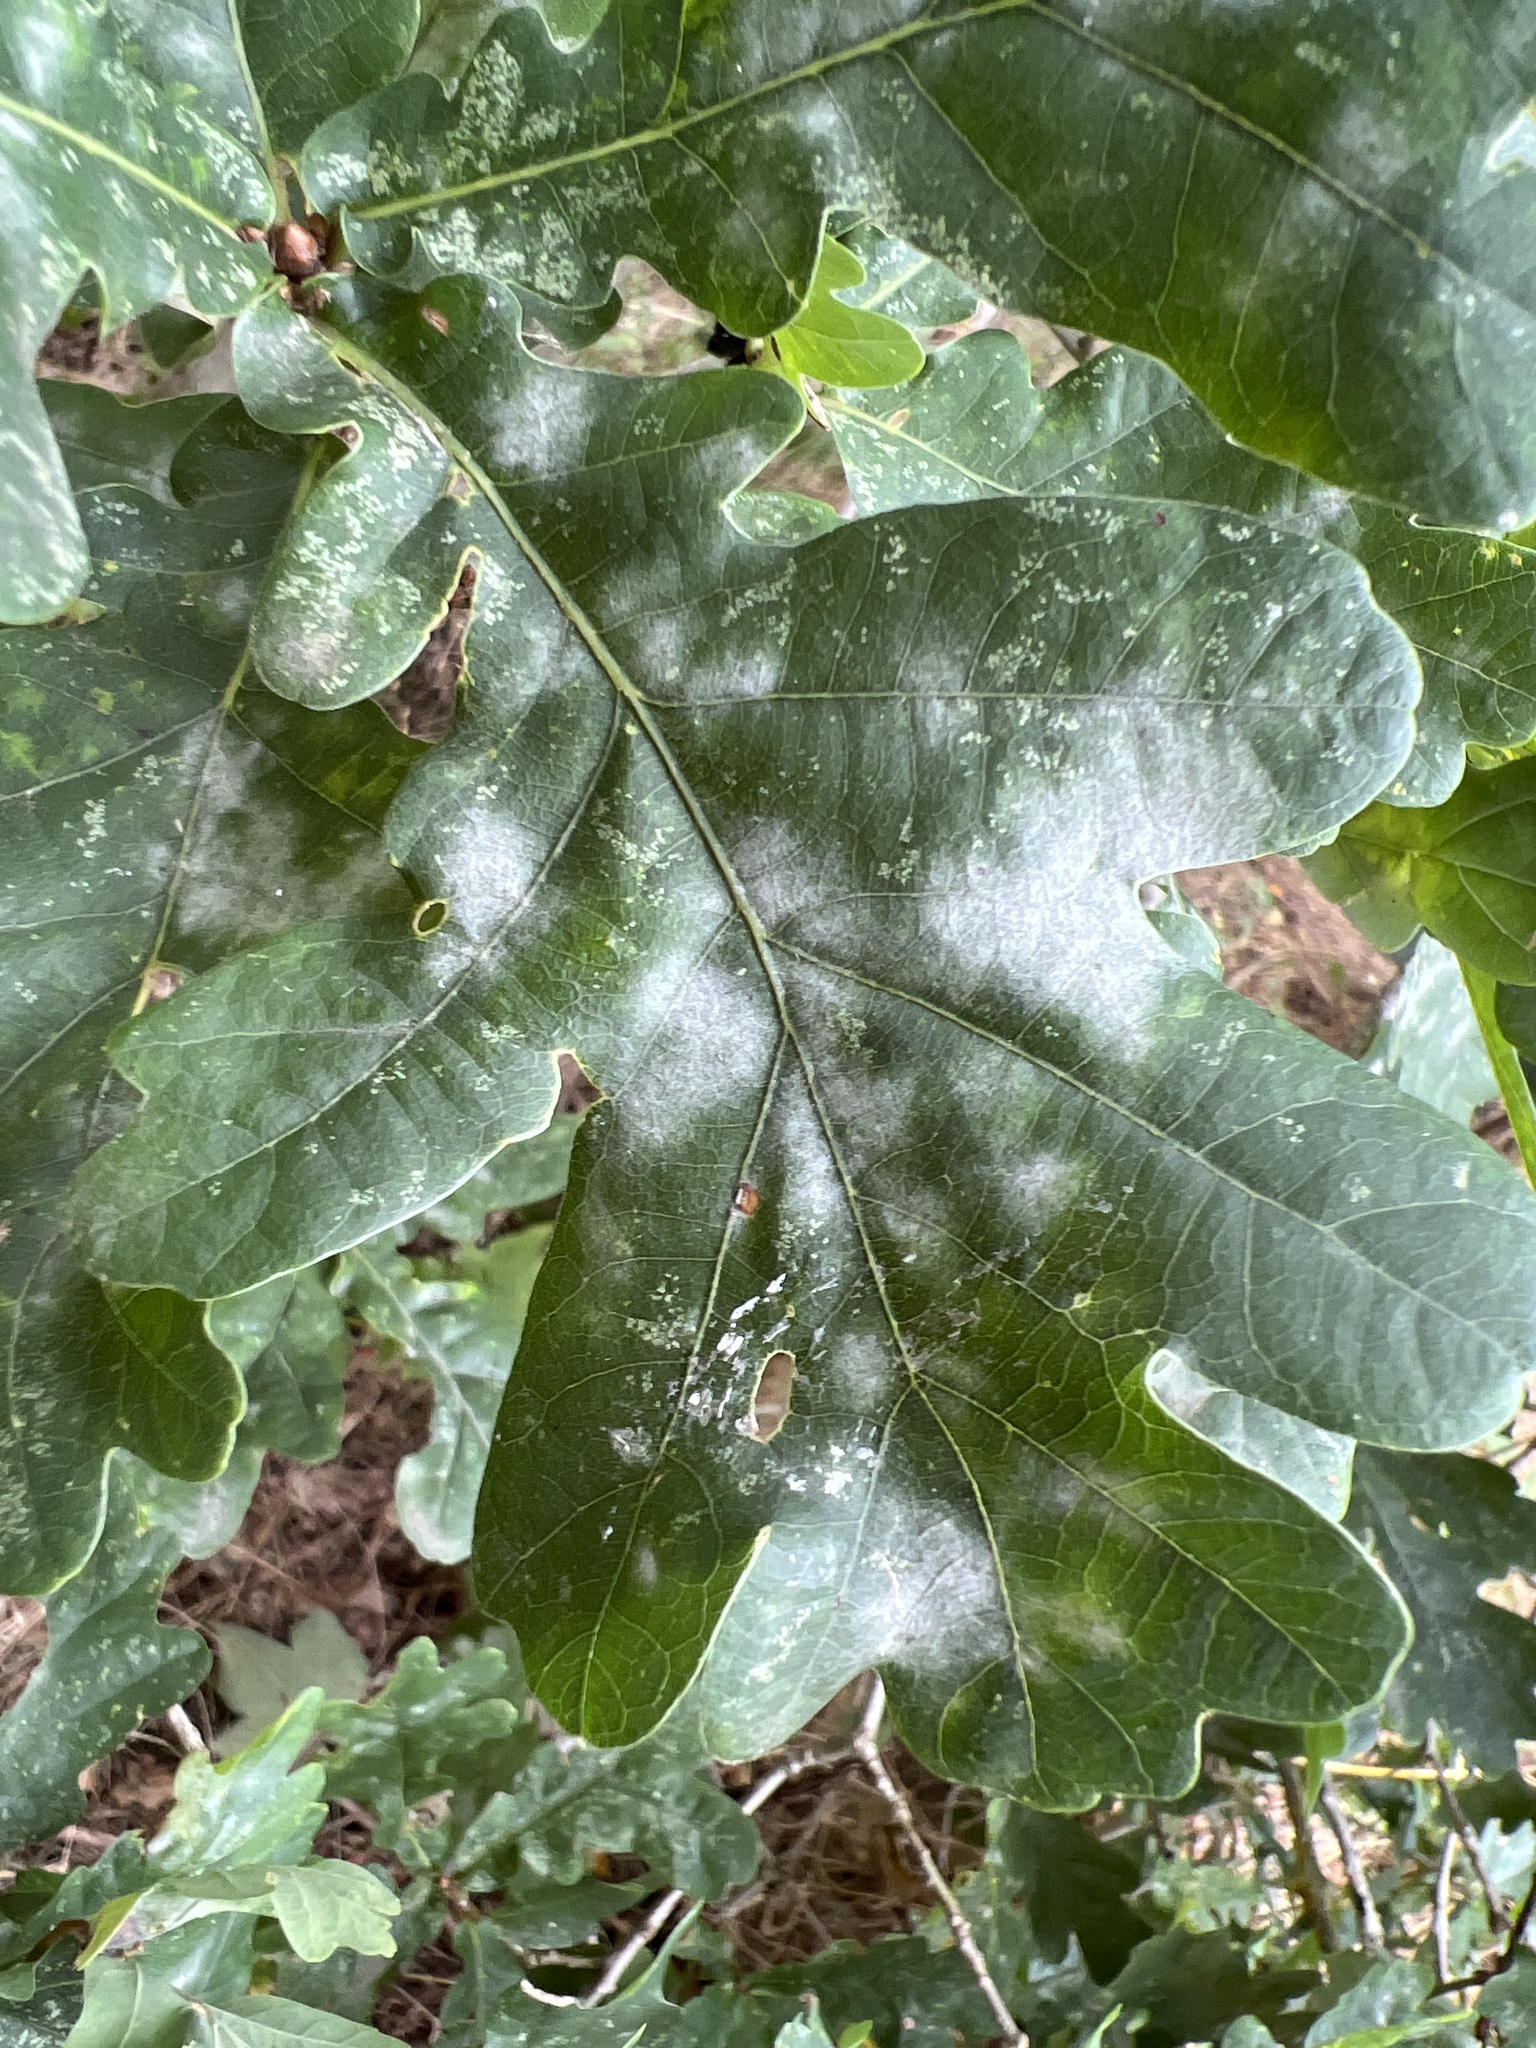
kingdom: Fungi
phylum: Ascomycota
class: Leotiomycetes
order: Helotiales
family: Erysiphaceae
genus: Erysiphe
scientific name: Erysiphe alphitoides
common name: Oak mildew
